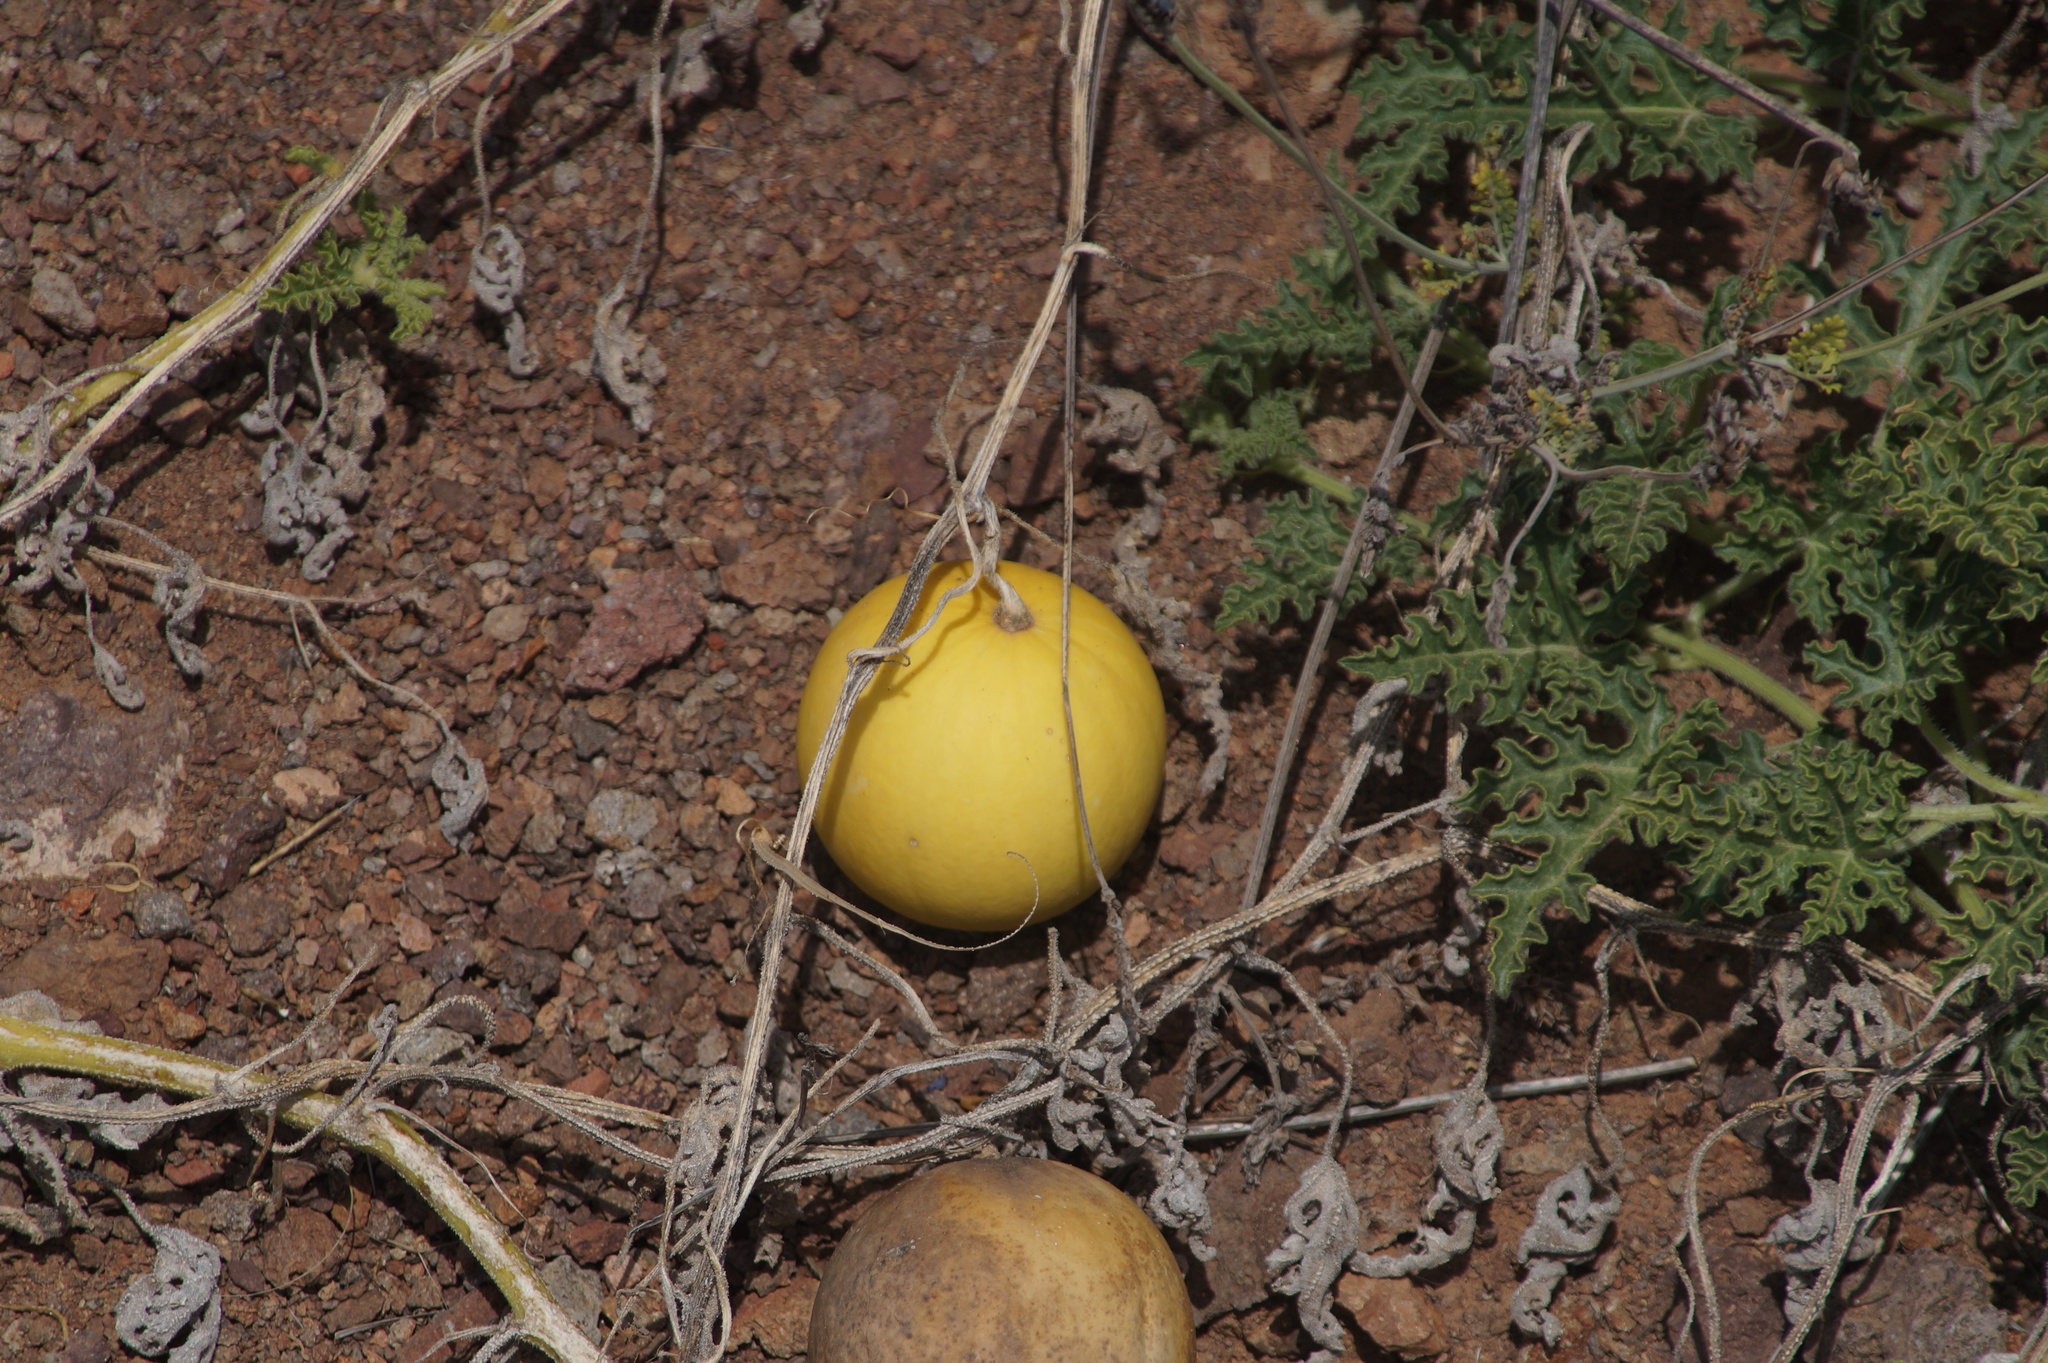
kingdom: Plantae
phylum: Tracheophyta
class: Magnoliopsida
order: Cucurbitales
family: Cucurbitaceae
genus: Citrullus
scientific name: Citrullus colocynthis
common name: Colocynth
